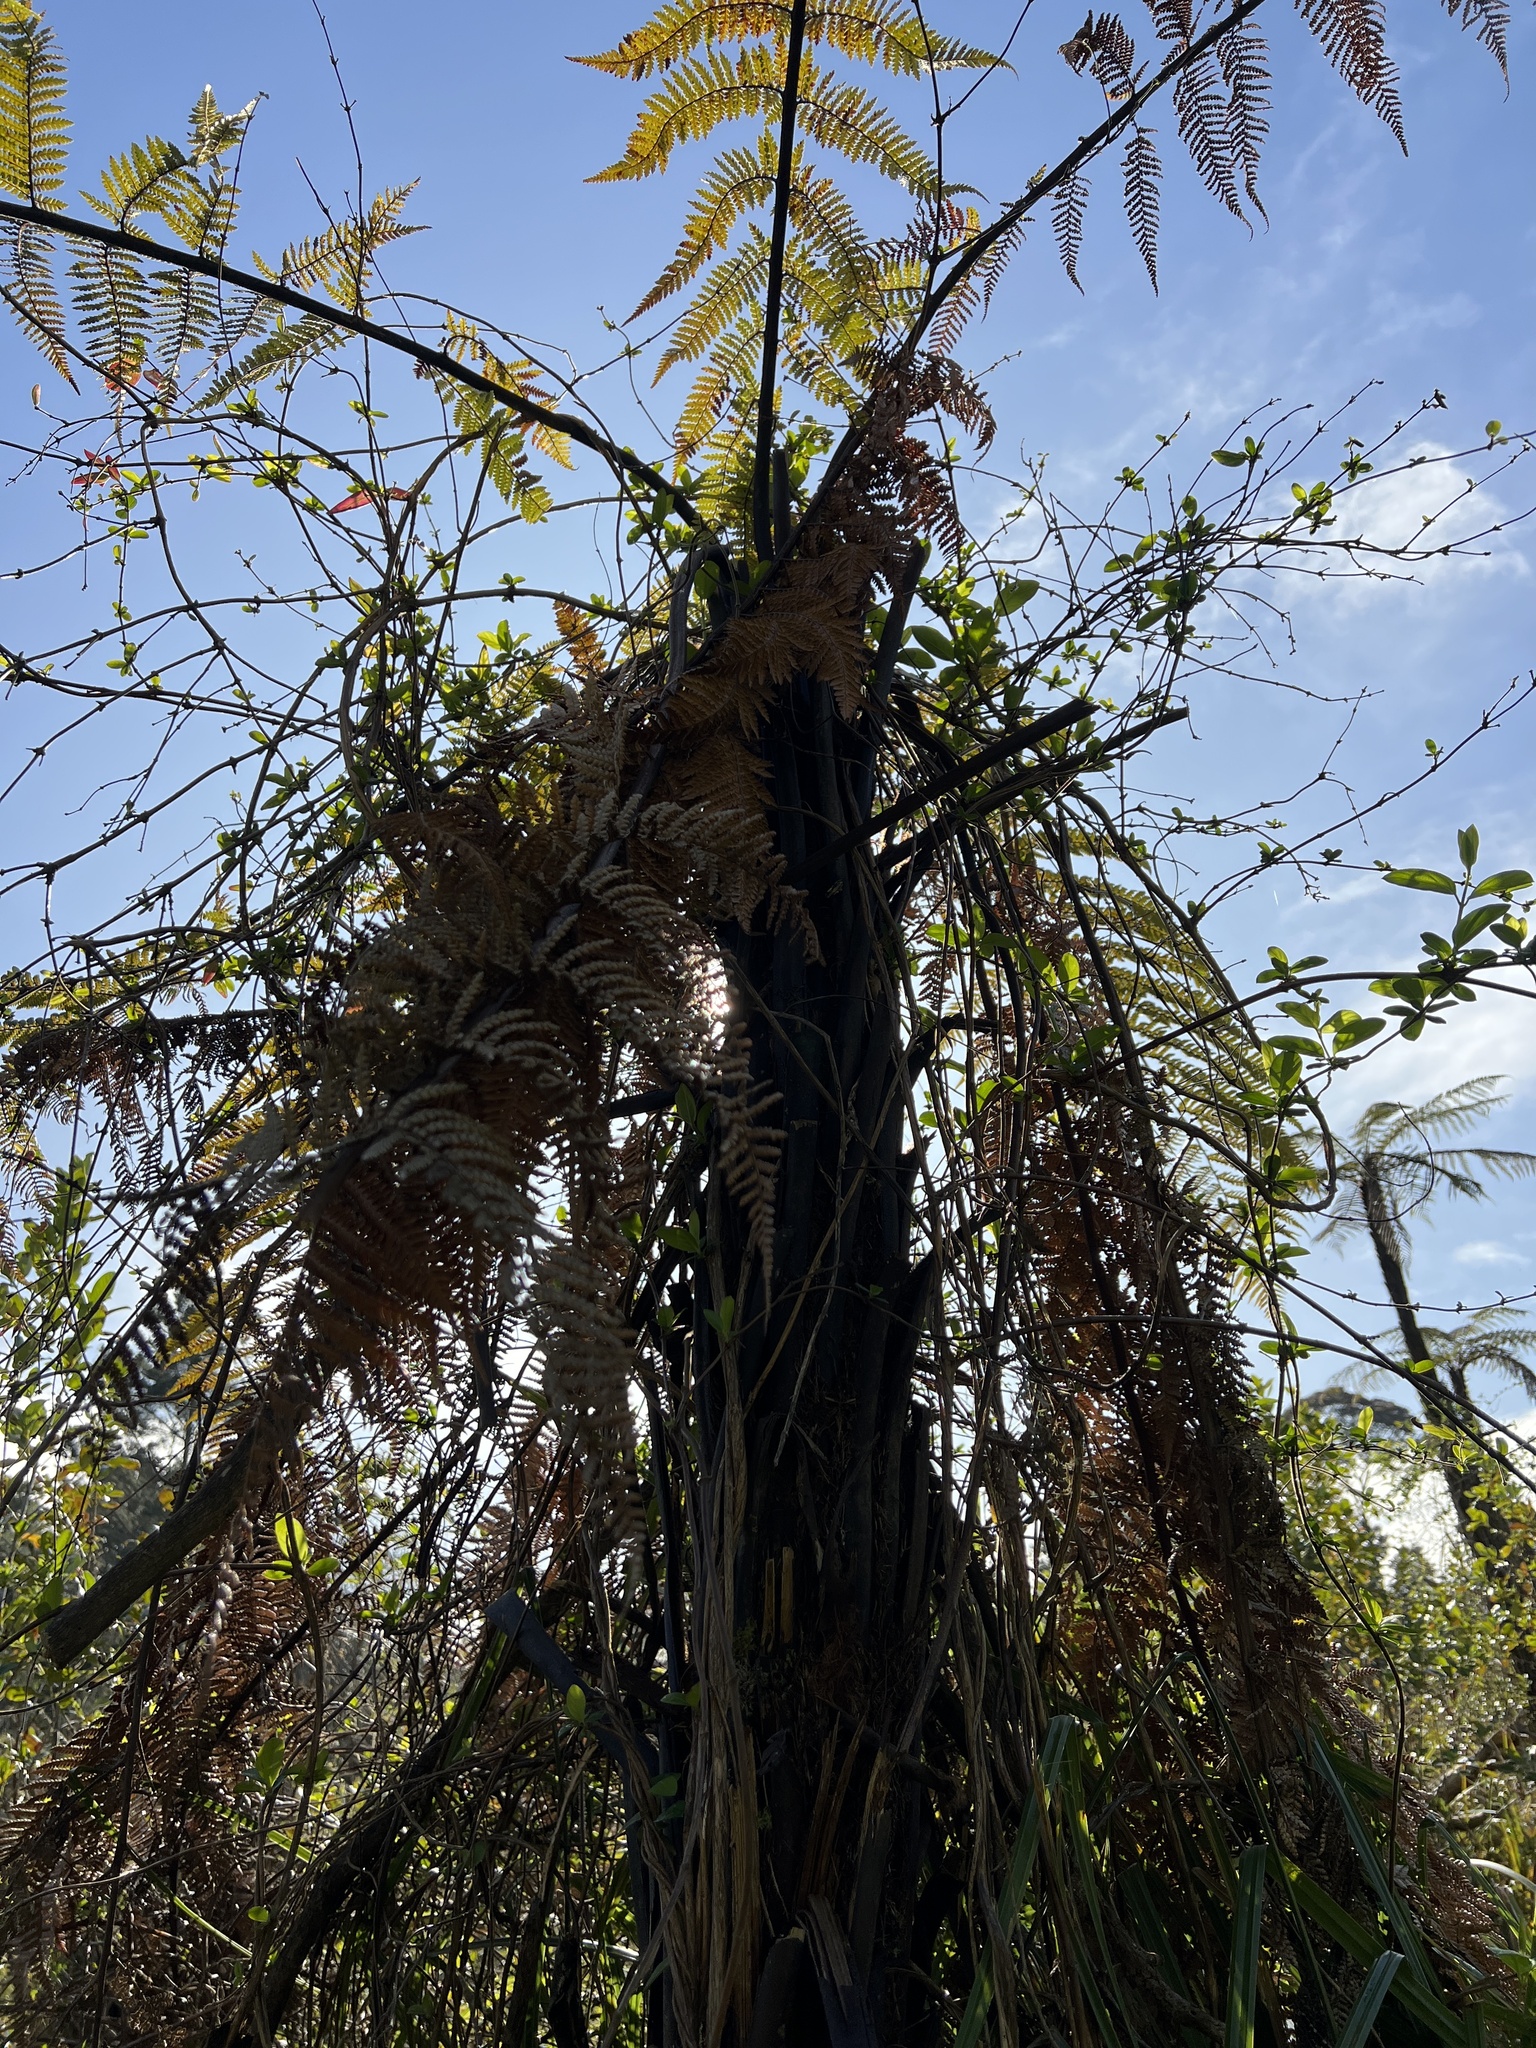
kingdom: Plantae
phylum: Tracheophyta
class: Polypodiopsida
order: Cyatheales
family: Dicksoniaceae
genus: Dicksonia
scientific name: Dicksonia squarrosa
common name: Hard treefern
